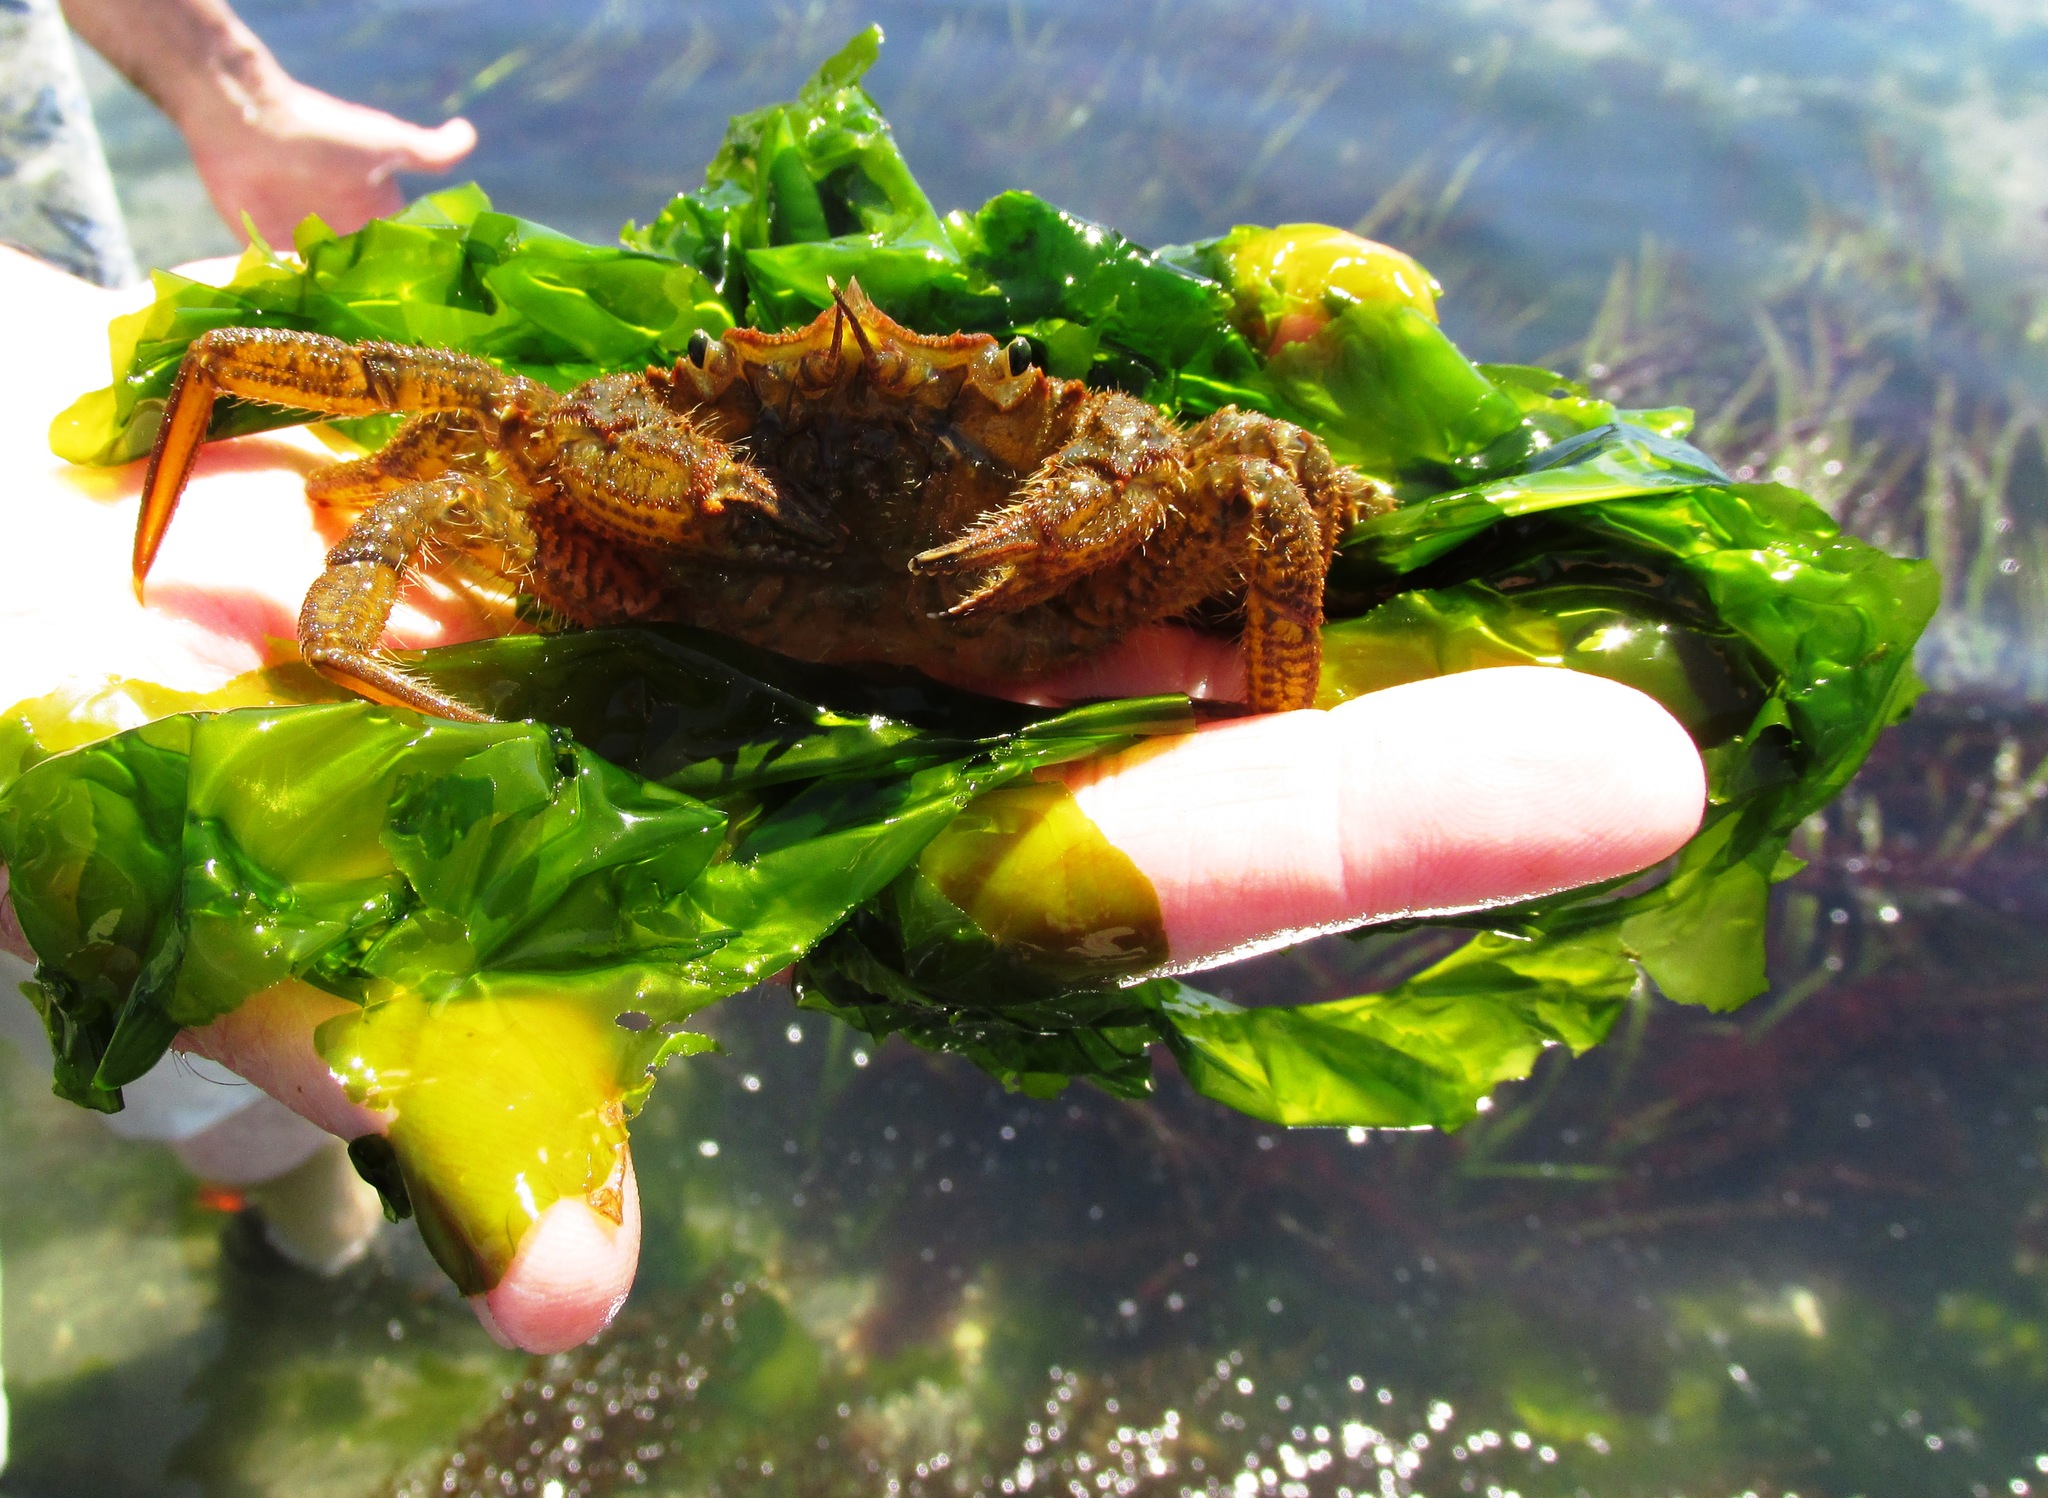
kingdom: Animalia
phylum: Arthropoda
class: Malacostraca
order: Decapoda
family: Cheiragonidae
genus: Telmessus
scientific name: Telmessus cheiragonus
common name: Helmet crab
